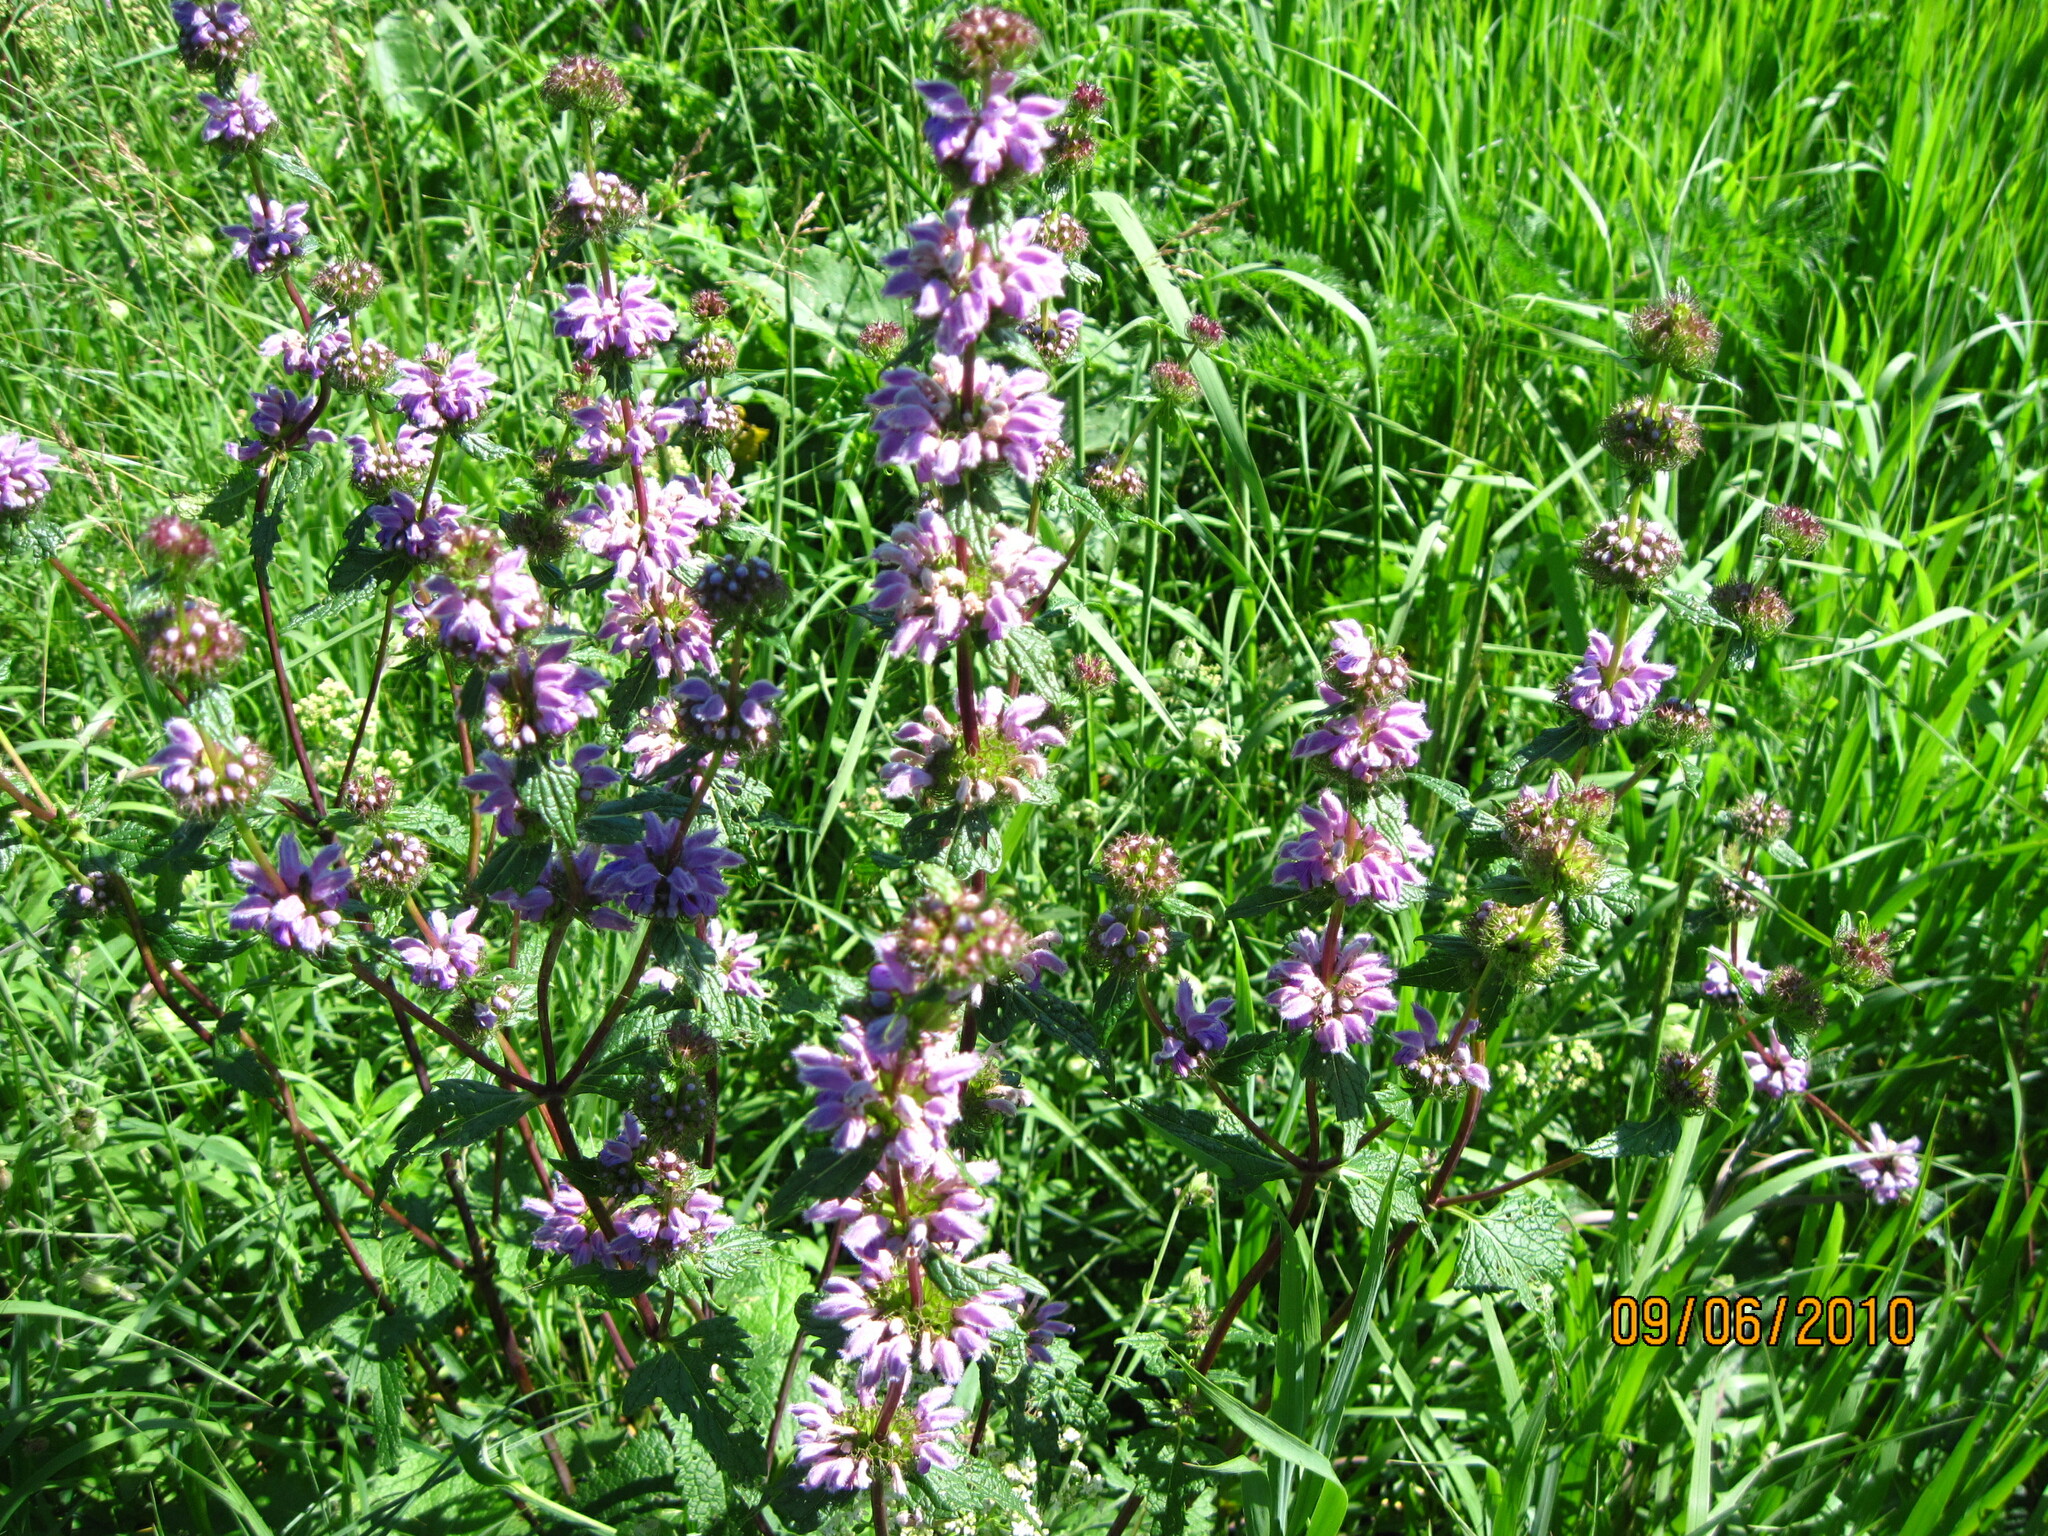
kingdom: Plantae
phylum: Tracheophyta
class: Magnoliopsida
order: Lamiales
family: Lamiaceae
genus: Phlomoides
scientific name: Phlomoides tuberosa
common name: Tuberous jerusalem sage
